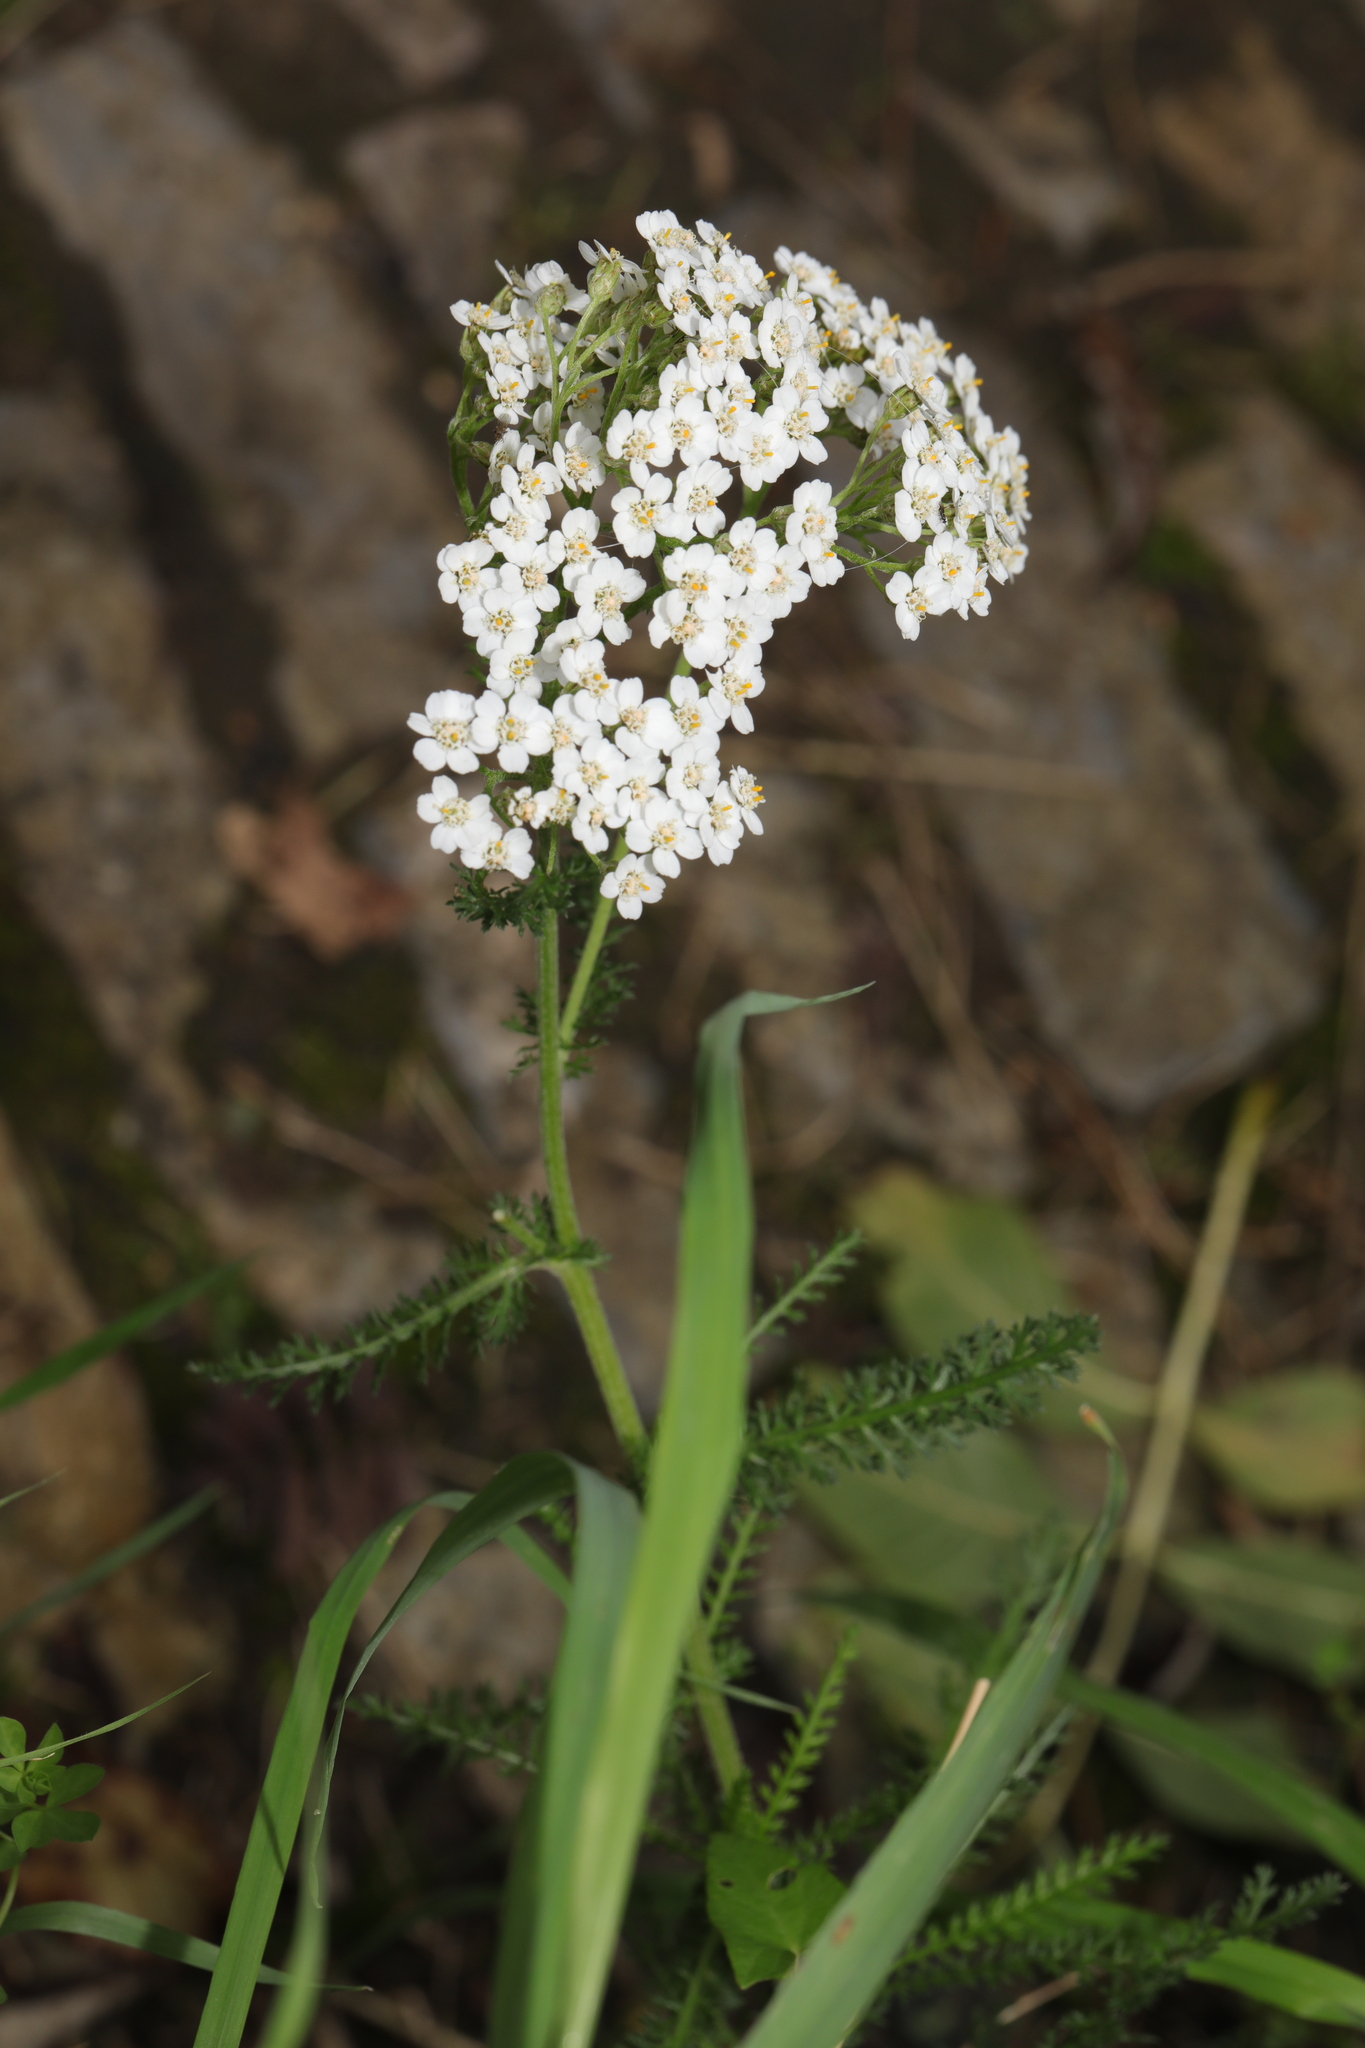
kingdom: Plantae
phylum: Tracheophyta
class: Magnoliopsida
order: Asterales
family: Asteraceae
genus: Achillea
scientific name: Achillea millefolium
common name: Yarrow
